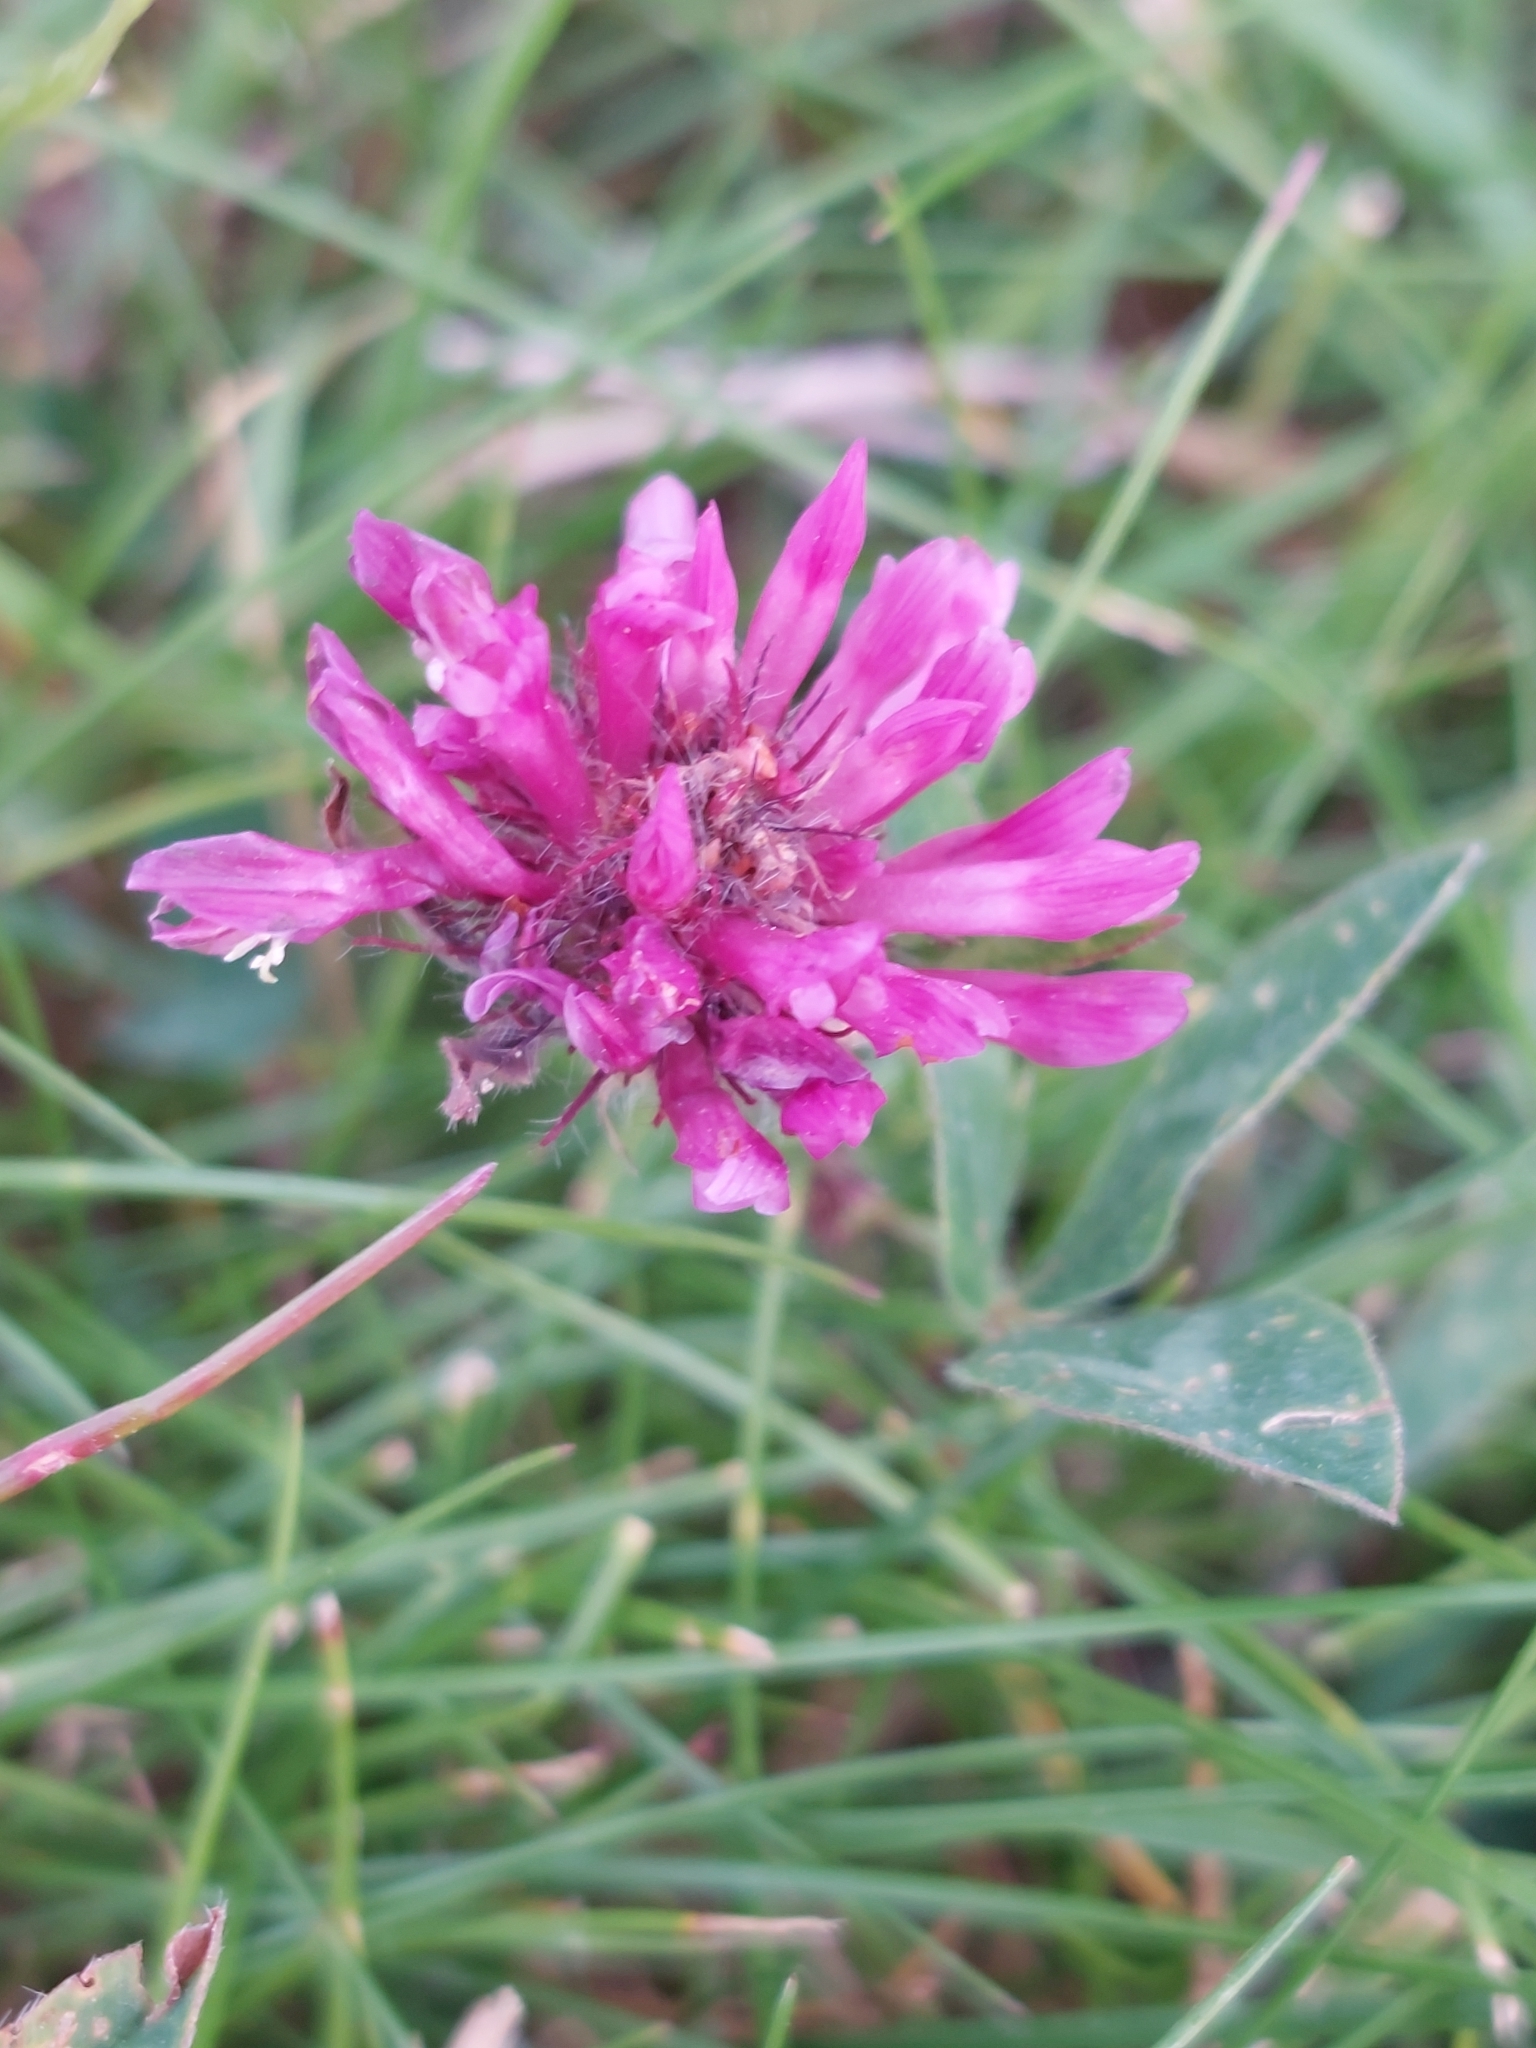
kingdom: Plantae
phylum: Tracheophyta
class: Magnoliopsida
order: Fabales
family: Fabaceae
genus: Trifolium
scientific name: Trifolium pratense
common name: Red clover
